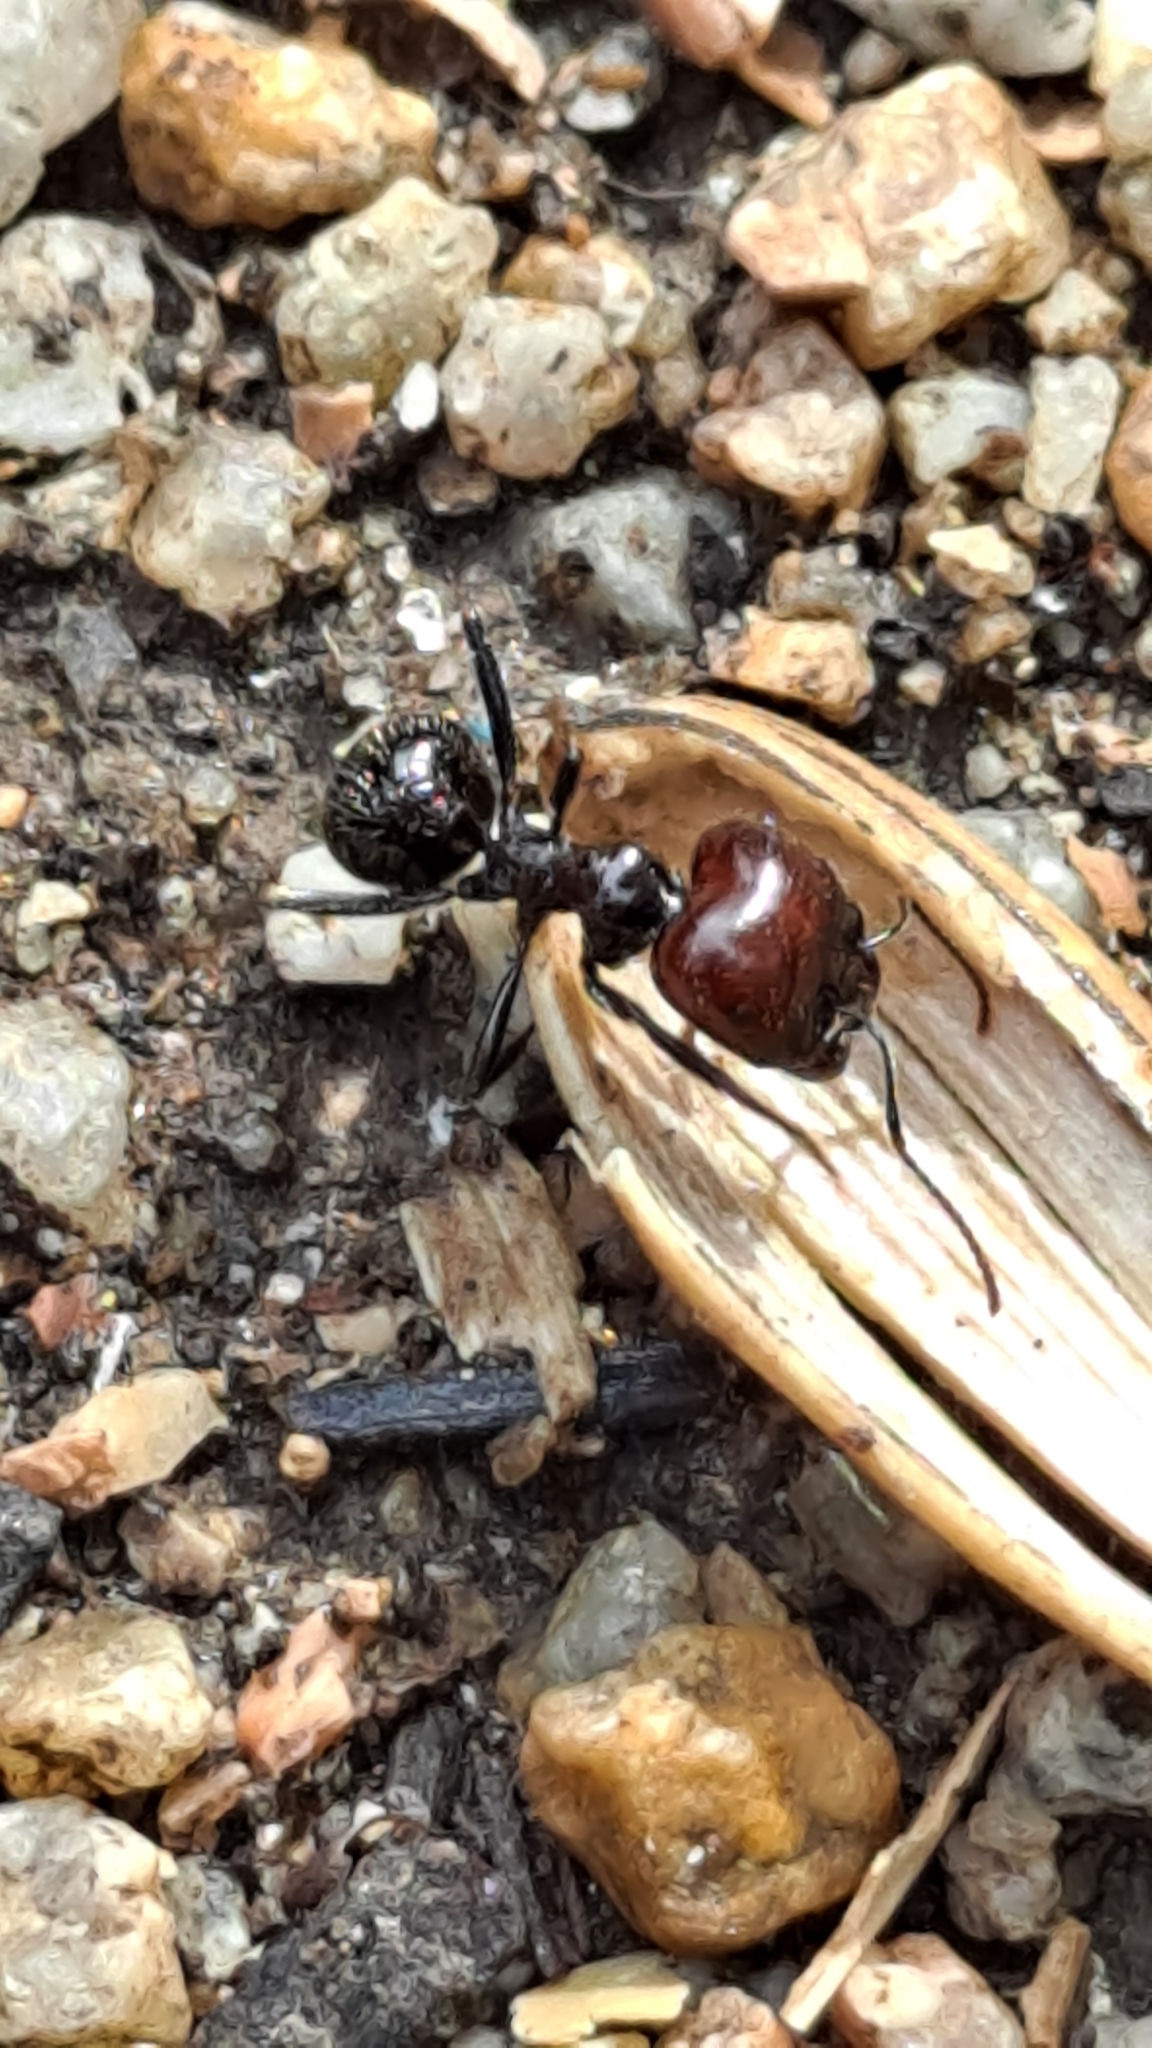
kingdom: Animalia
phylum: Arthropoda
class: Insecta
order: Hymenoptera
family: Formicidae
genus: Messor
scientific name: Messor barbarus
